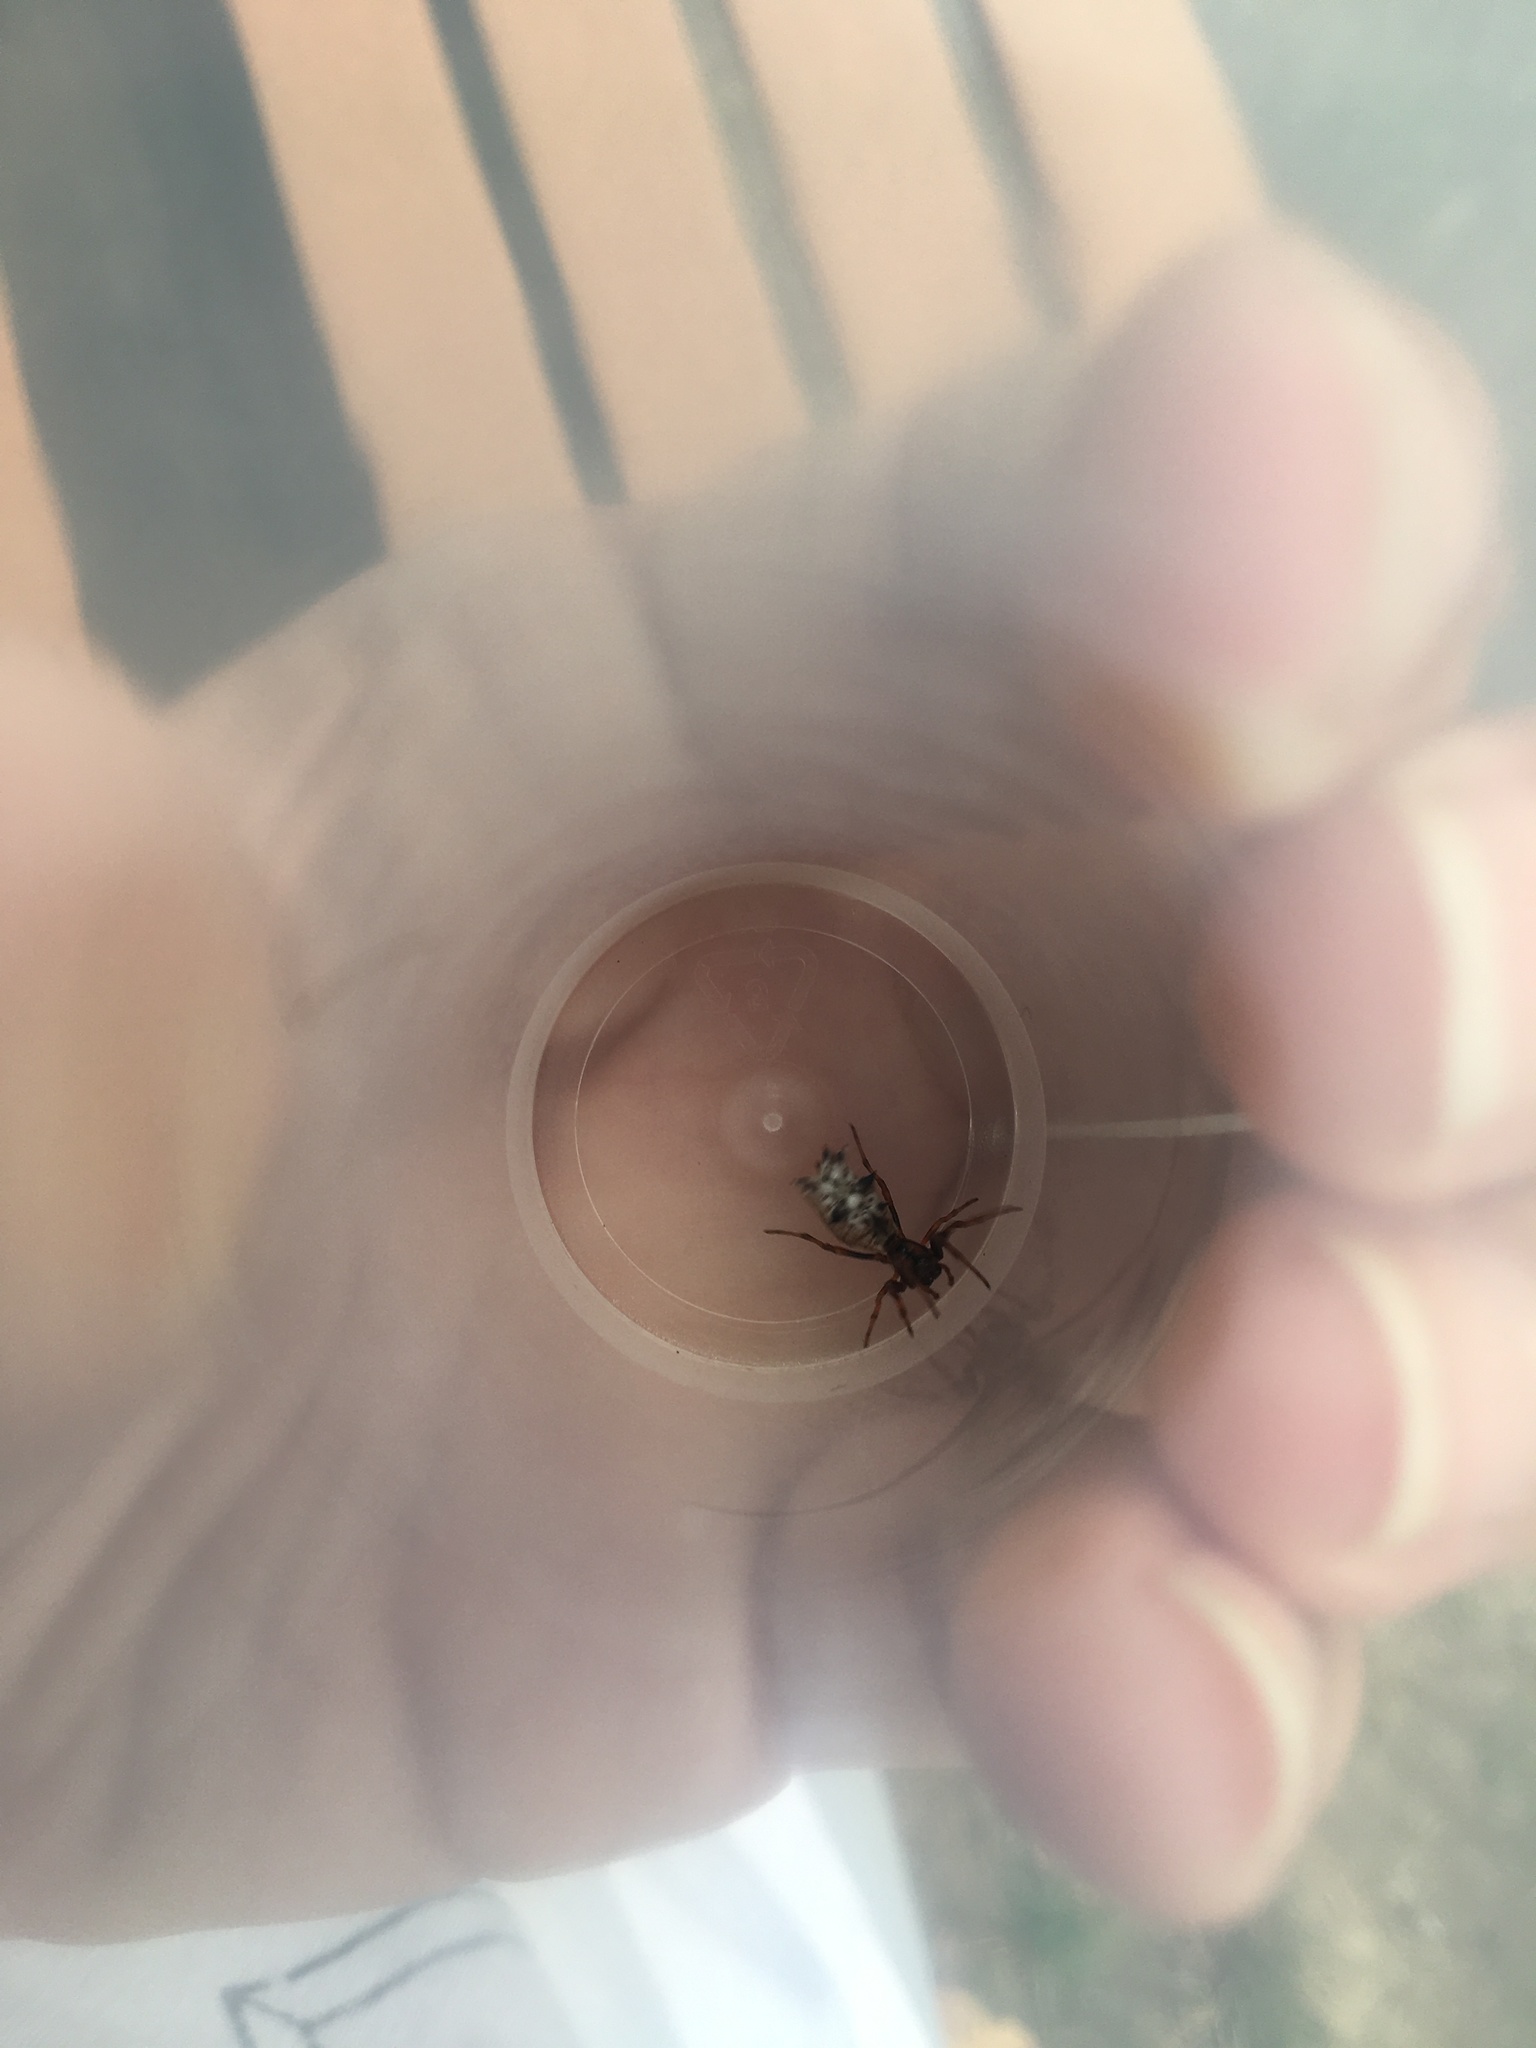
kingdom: Animalia
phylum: Arthropoda
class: Arachnida
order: Araneae
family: Araneidae
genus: Micrathena
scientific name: Micrathena gracilis
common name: Orb weavers
